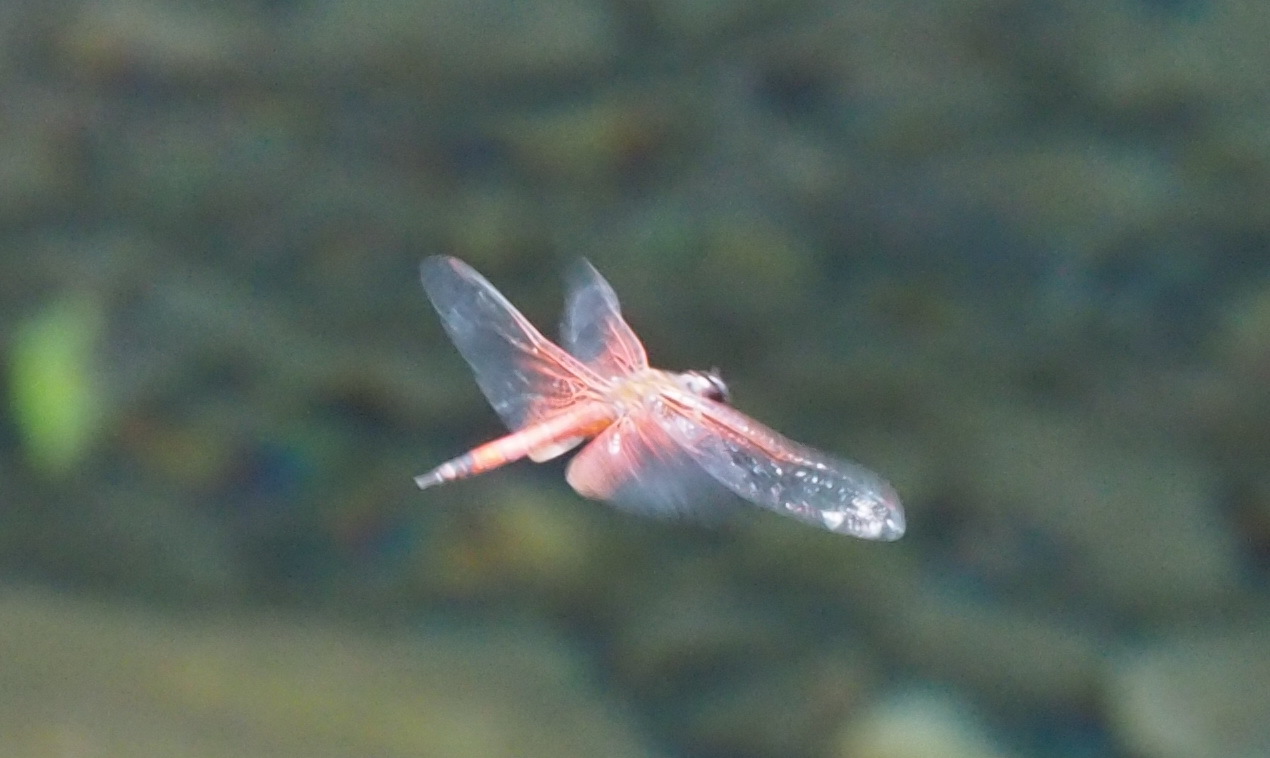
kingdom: Animalia
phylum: Arthropoda
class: Insecta
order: Odonata
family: Libellulidae
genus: Tramea
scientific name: Tramea virginia
